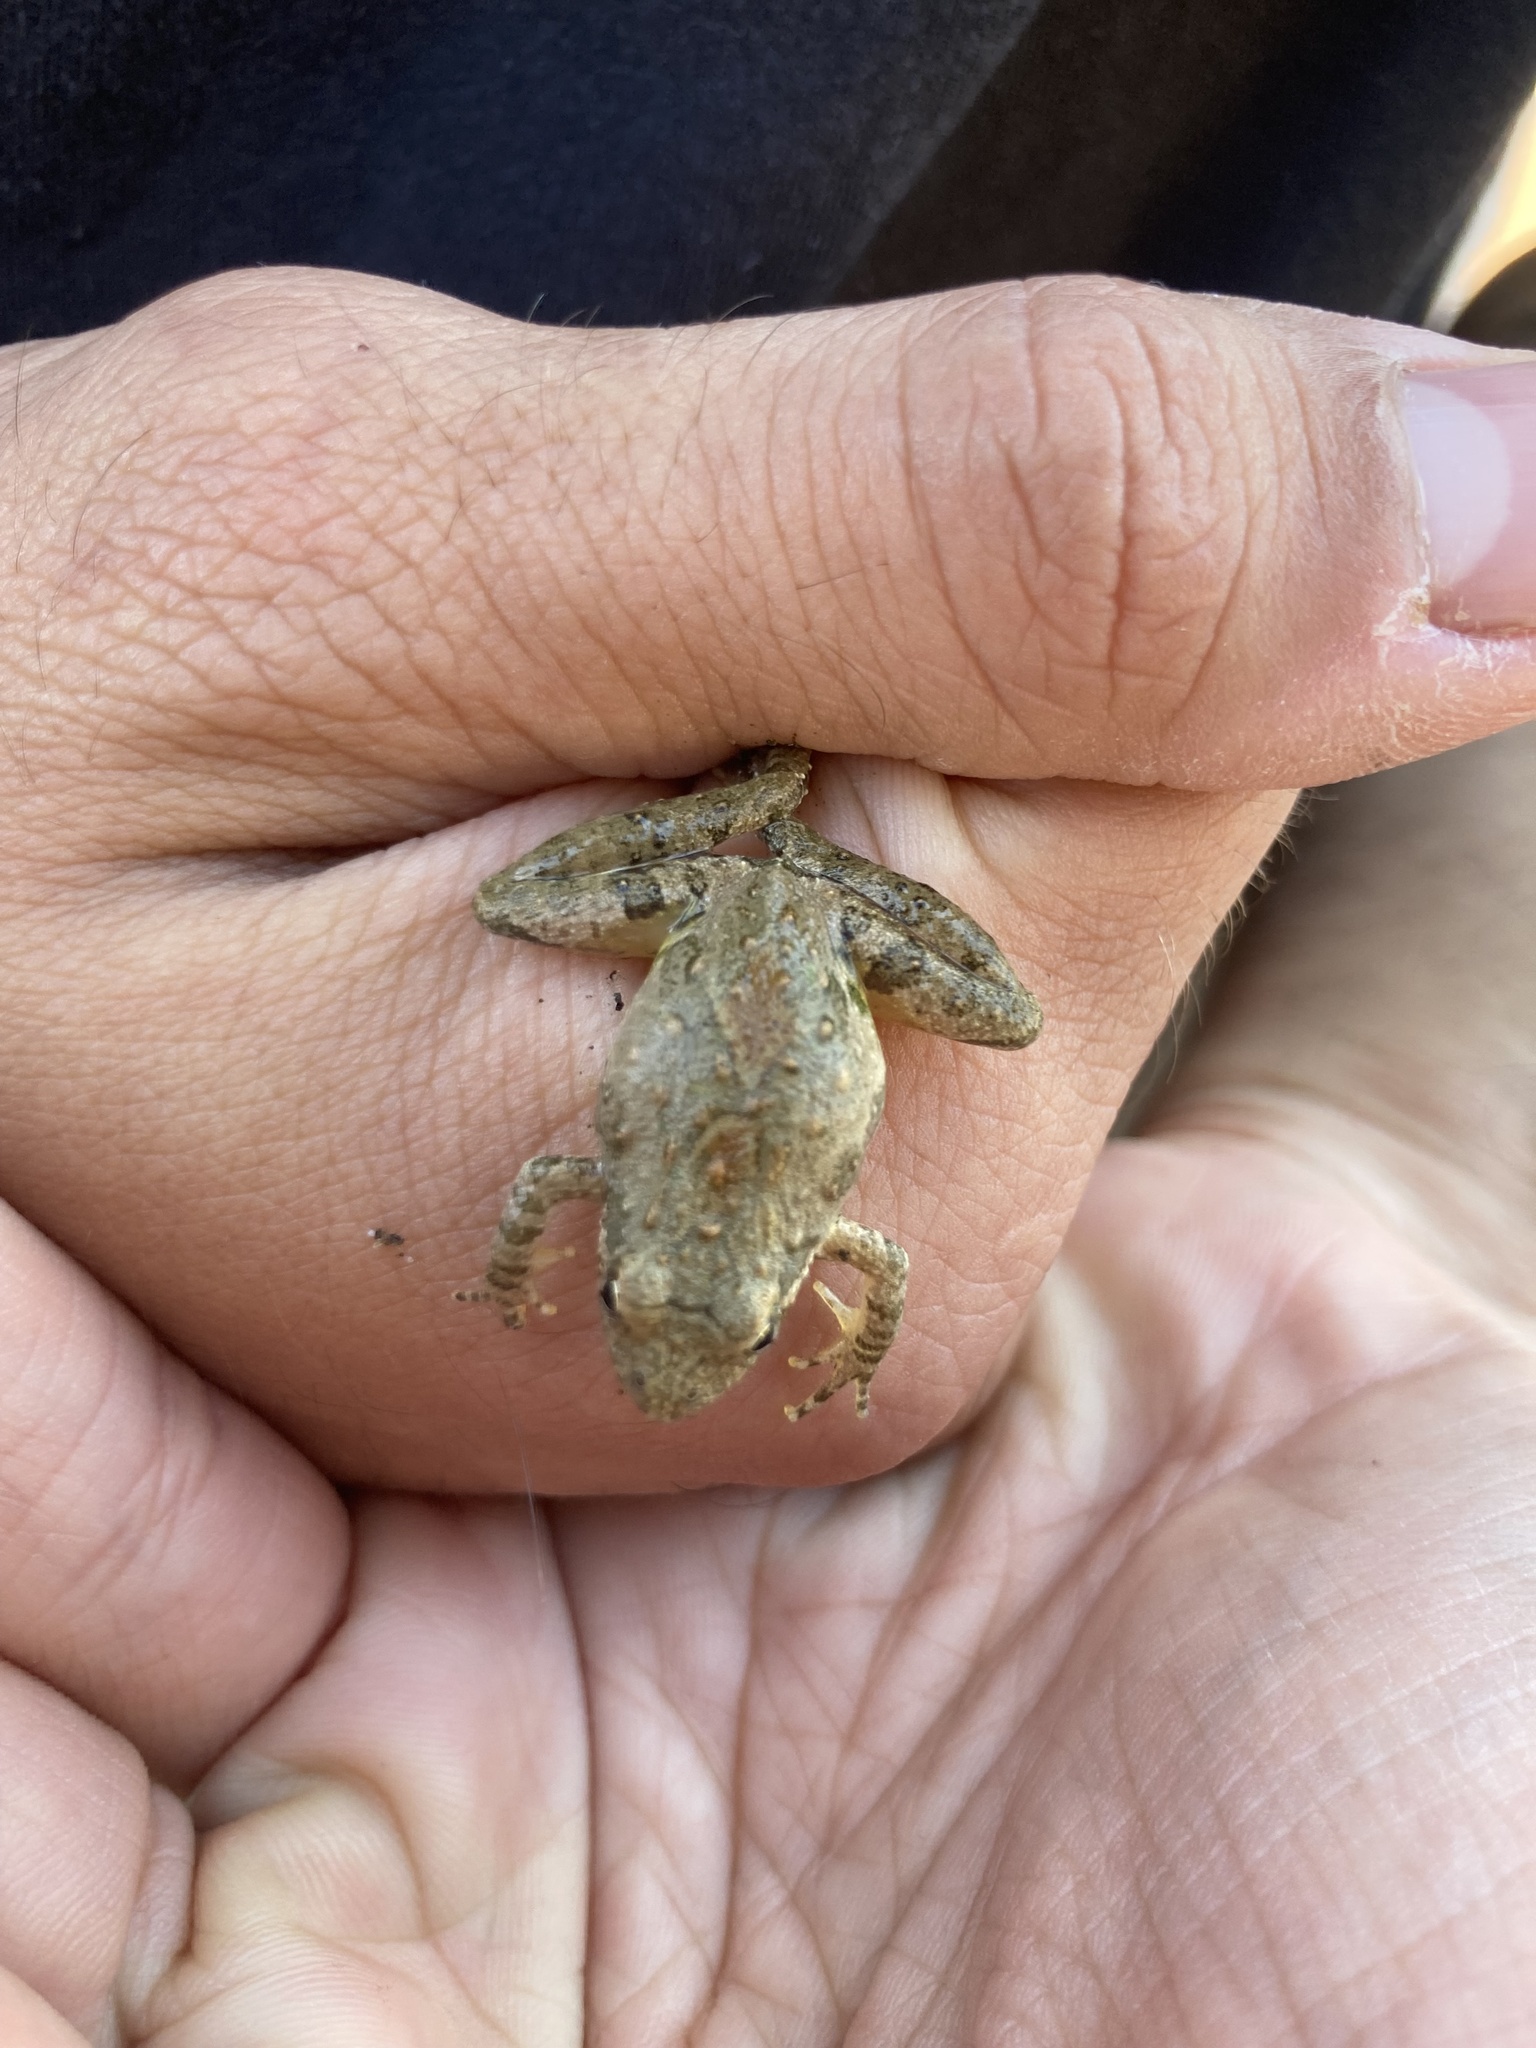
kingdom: Animalia
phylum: Chordata
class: Amphibia
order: Anura
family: Hylidae
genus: Acris
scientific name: Acris blanchardi
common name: Blanchard's cricket frog
